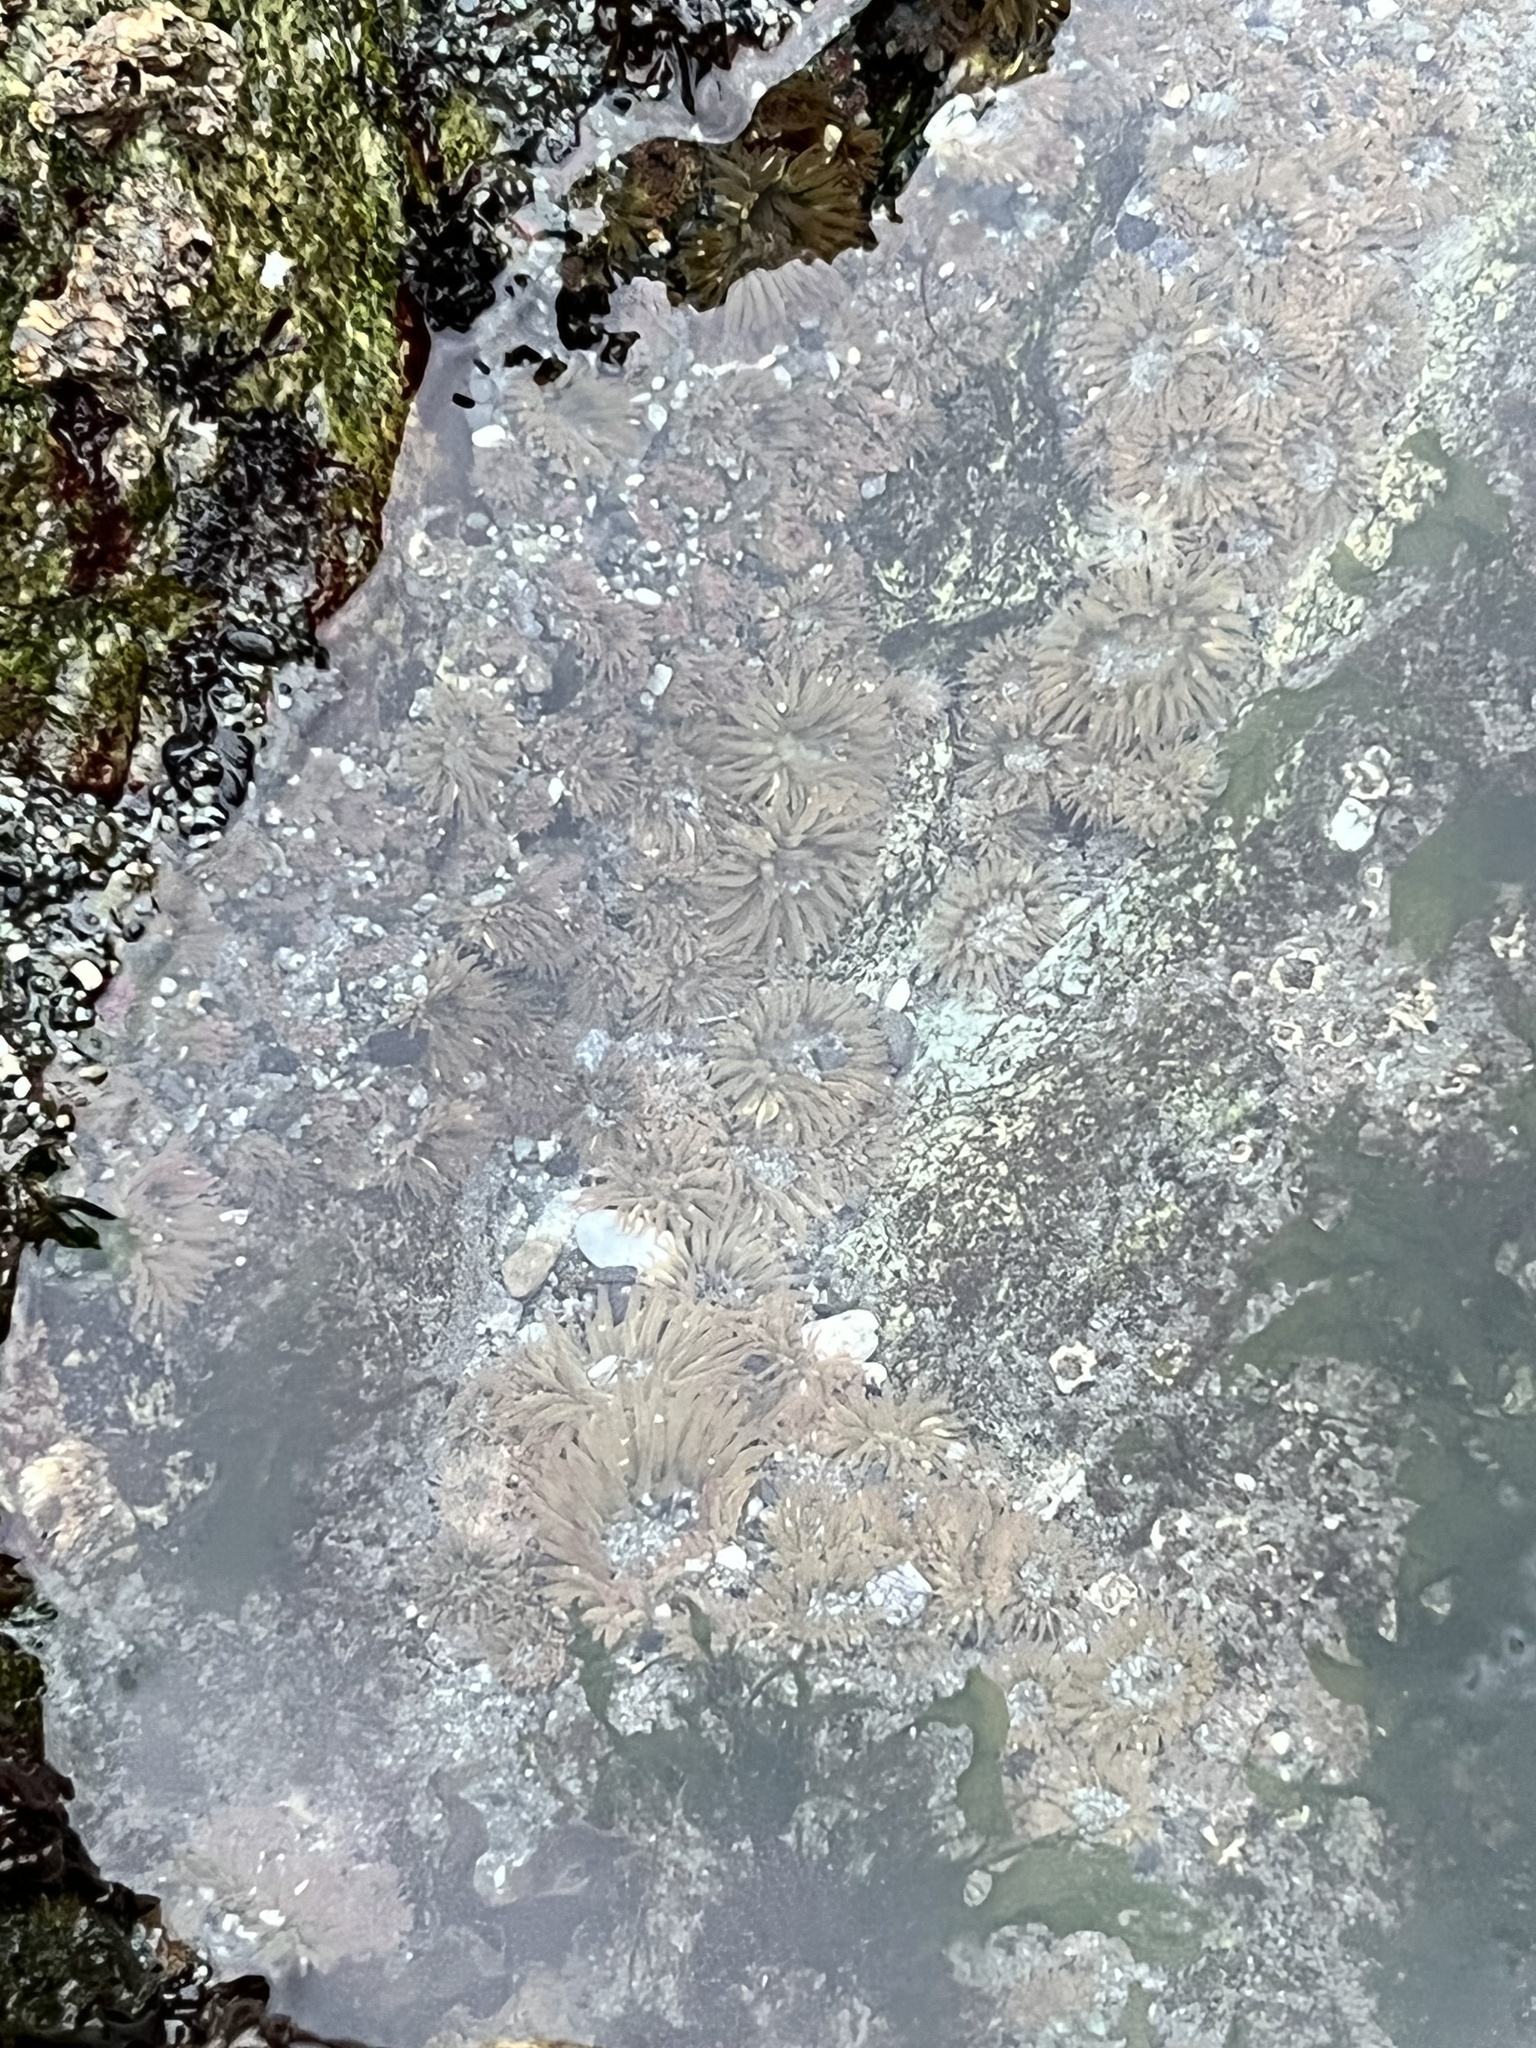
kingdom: Animalia
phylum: Cnidaria
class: Anthozoa
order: Actiniaria
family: Actiniidae
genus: Anthopleura
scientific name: Anthopleura elegantissima
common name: Clonal anemone
